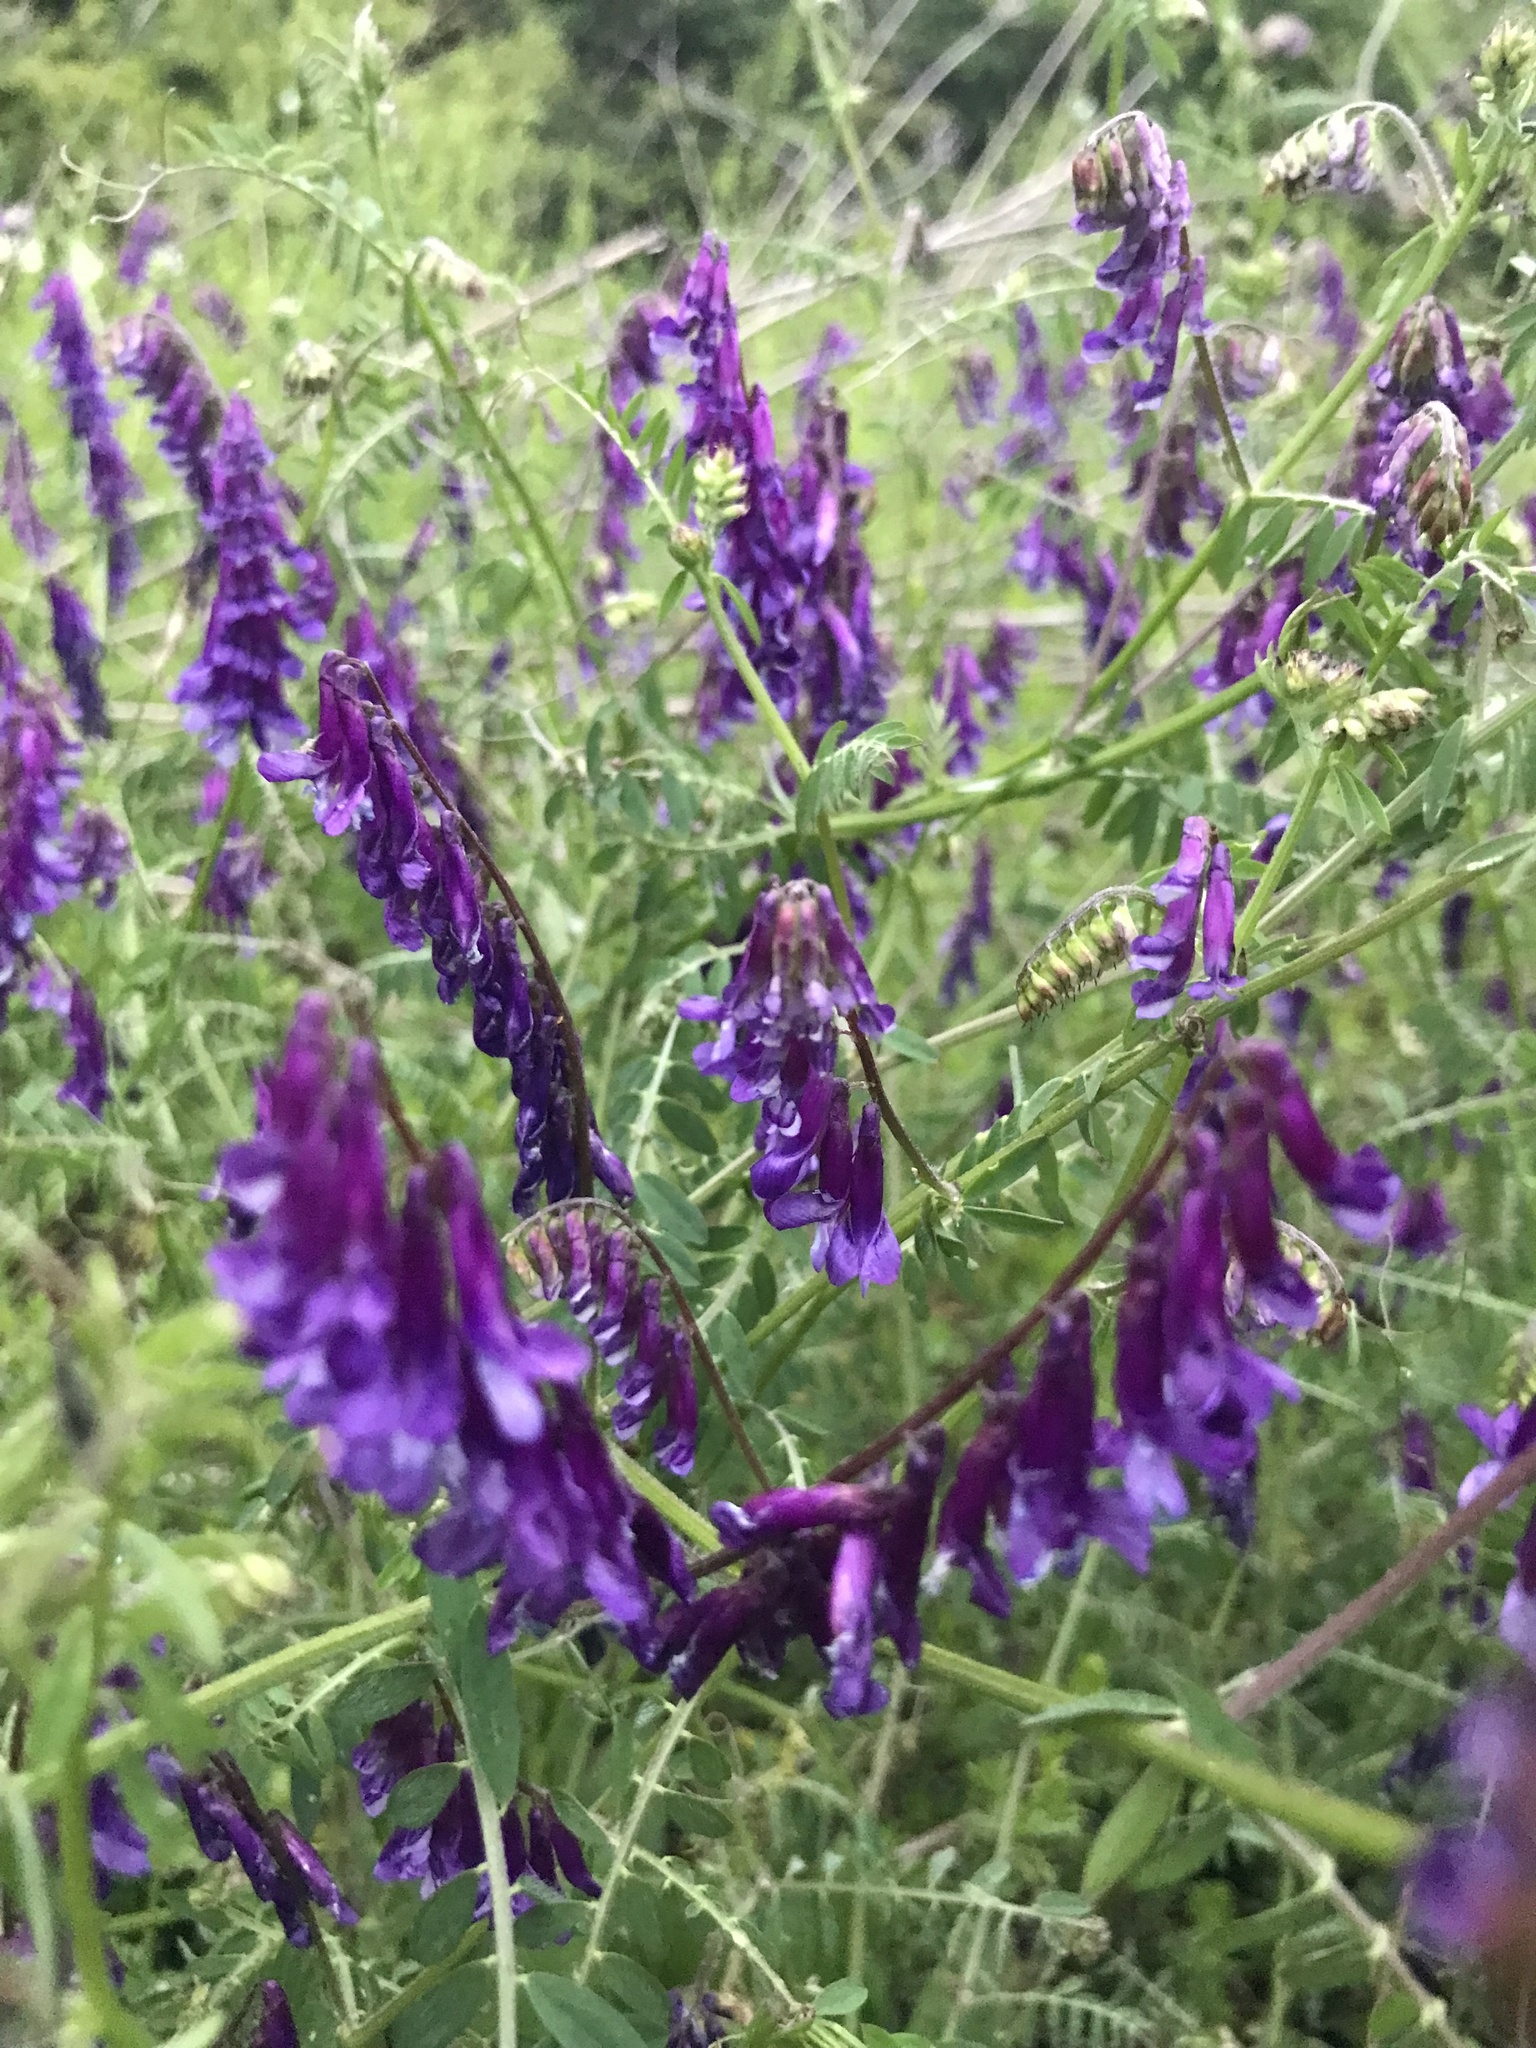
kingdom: Plantae
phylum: Tracheophyta
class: Magnoliopsida
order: Fabales
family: Fabaceae
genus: Vicia
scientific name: Vicia villosa
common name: Fodder vetch
